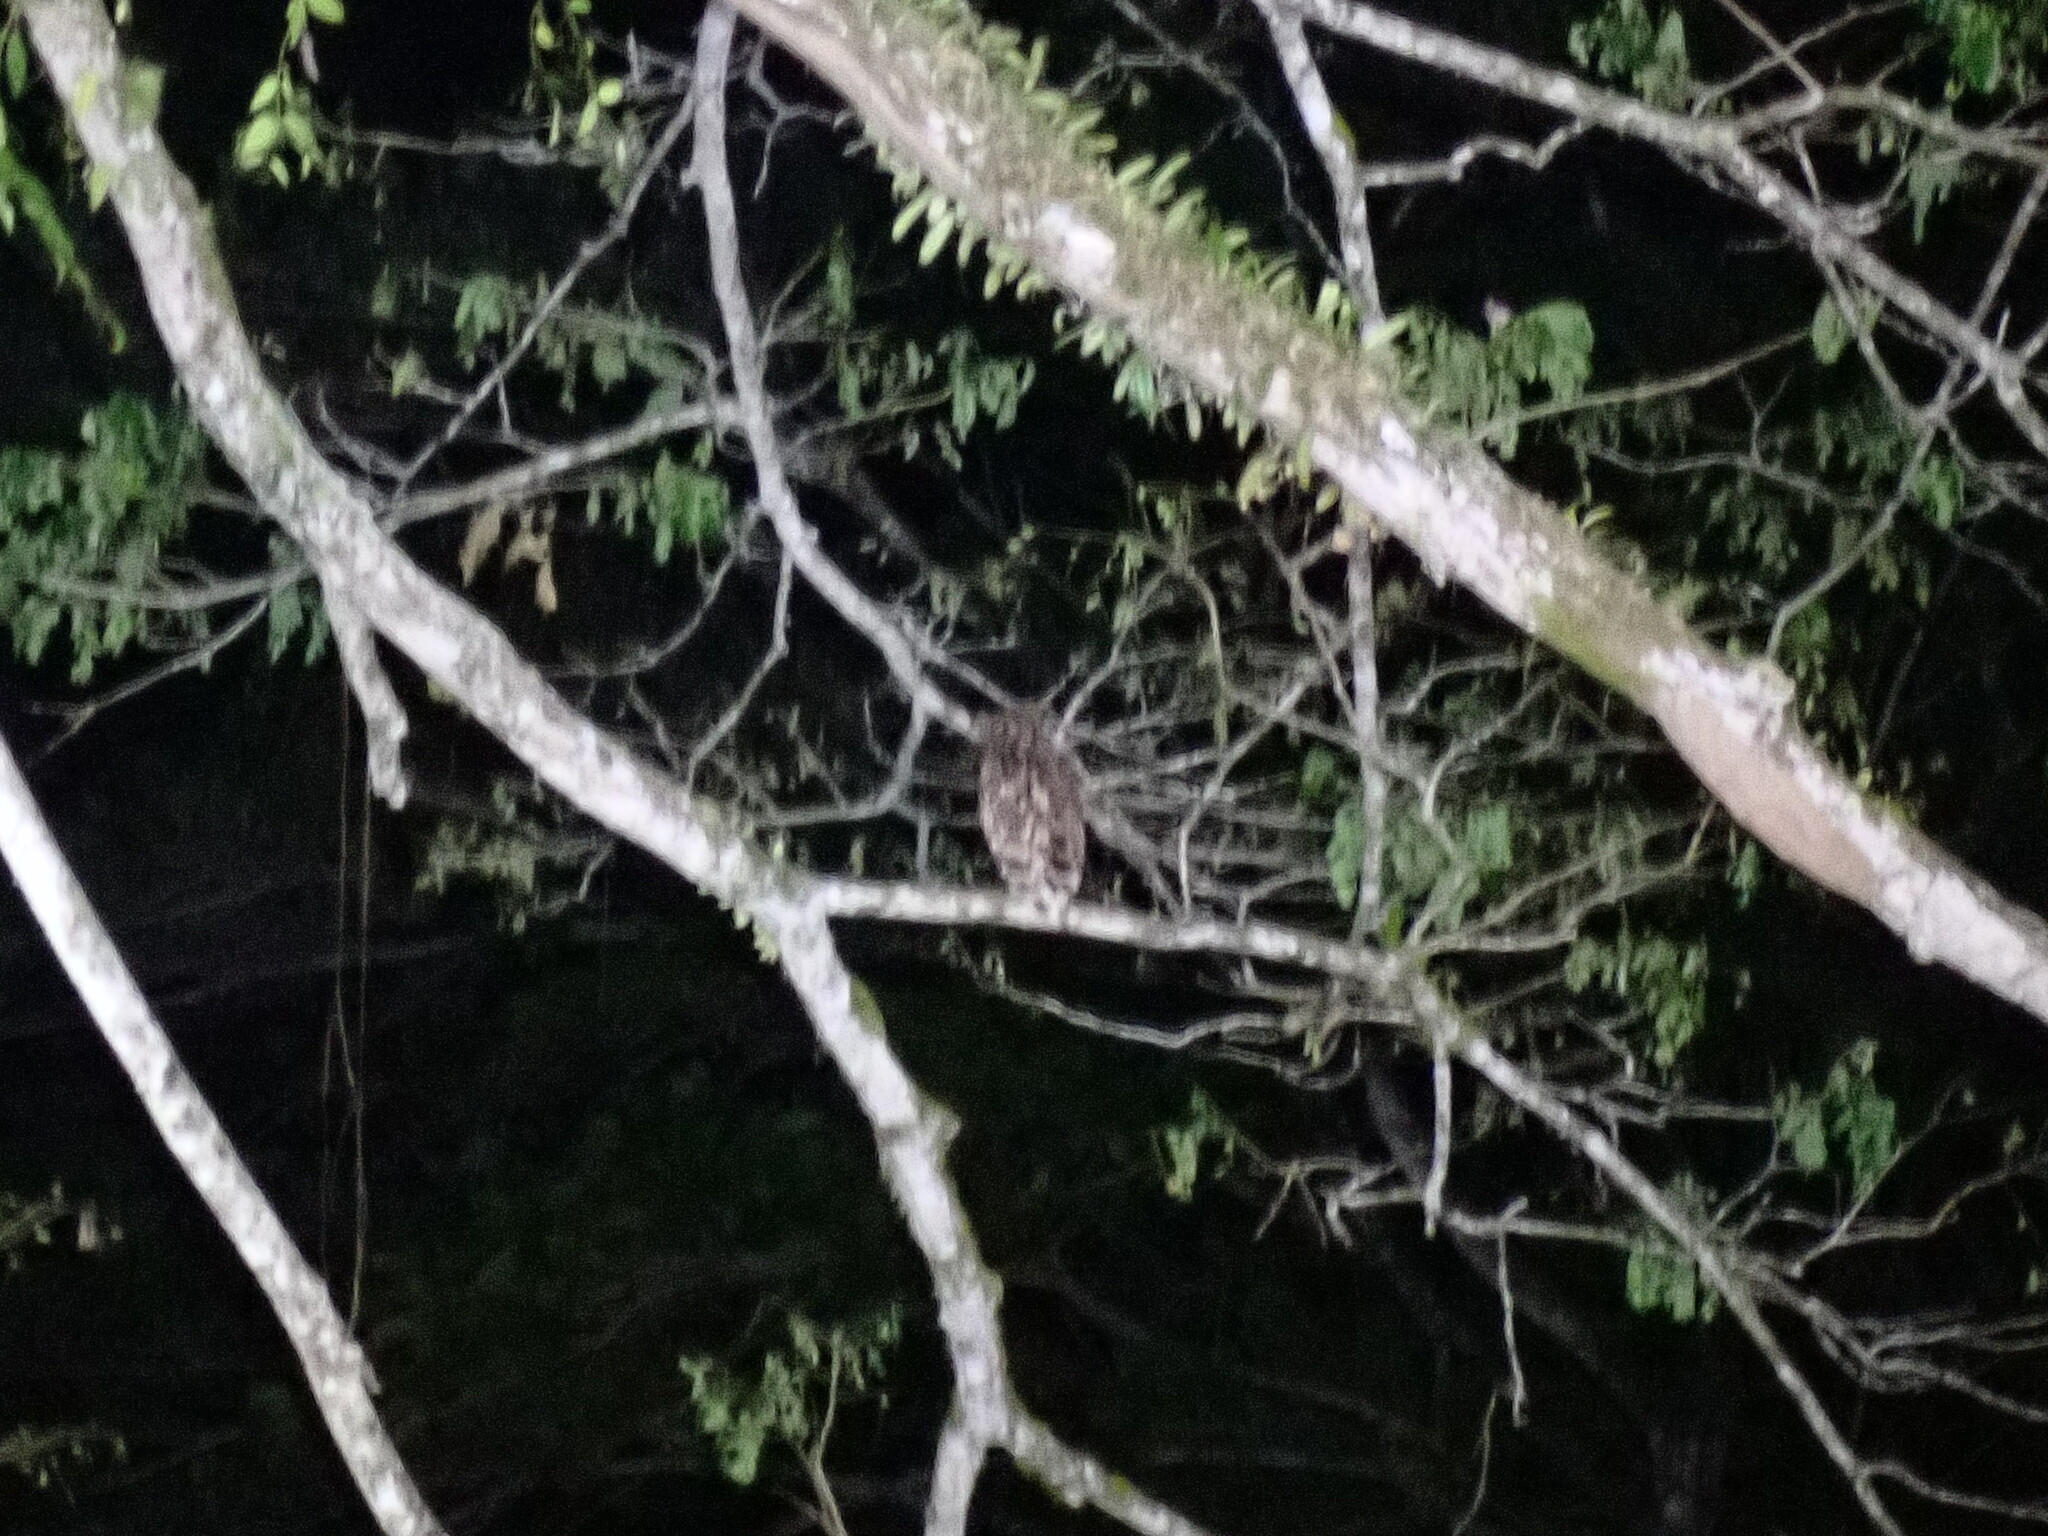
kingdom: Animalia
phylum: Chordata
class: Aves
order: Strigiformes
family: Strigidae
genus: Ketupa
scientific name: Ketupa ketupu
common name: Buffy fish-owl
